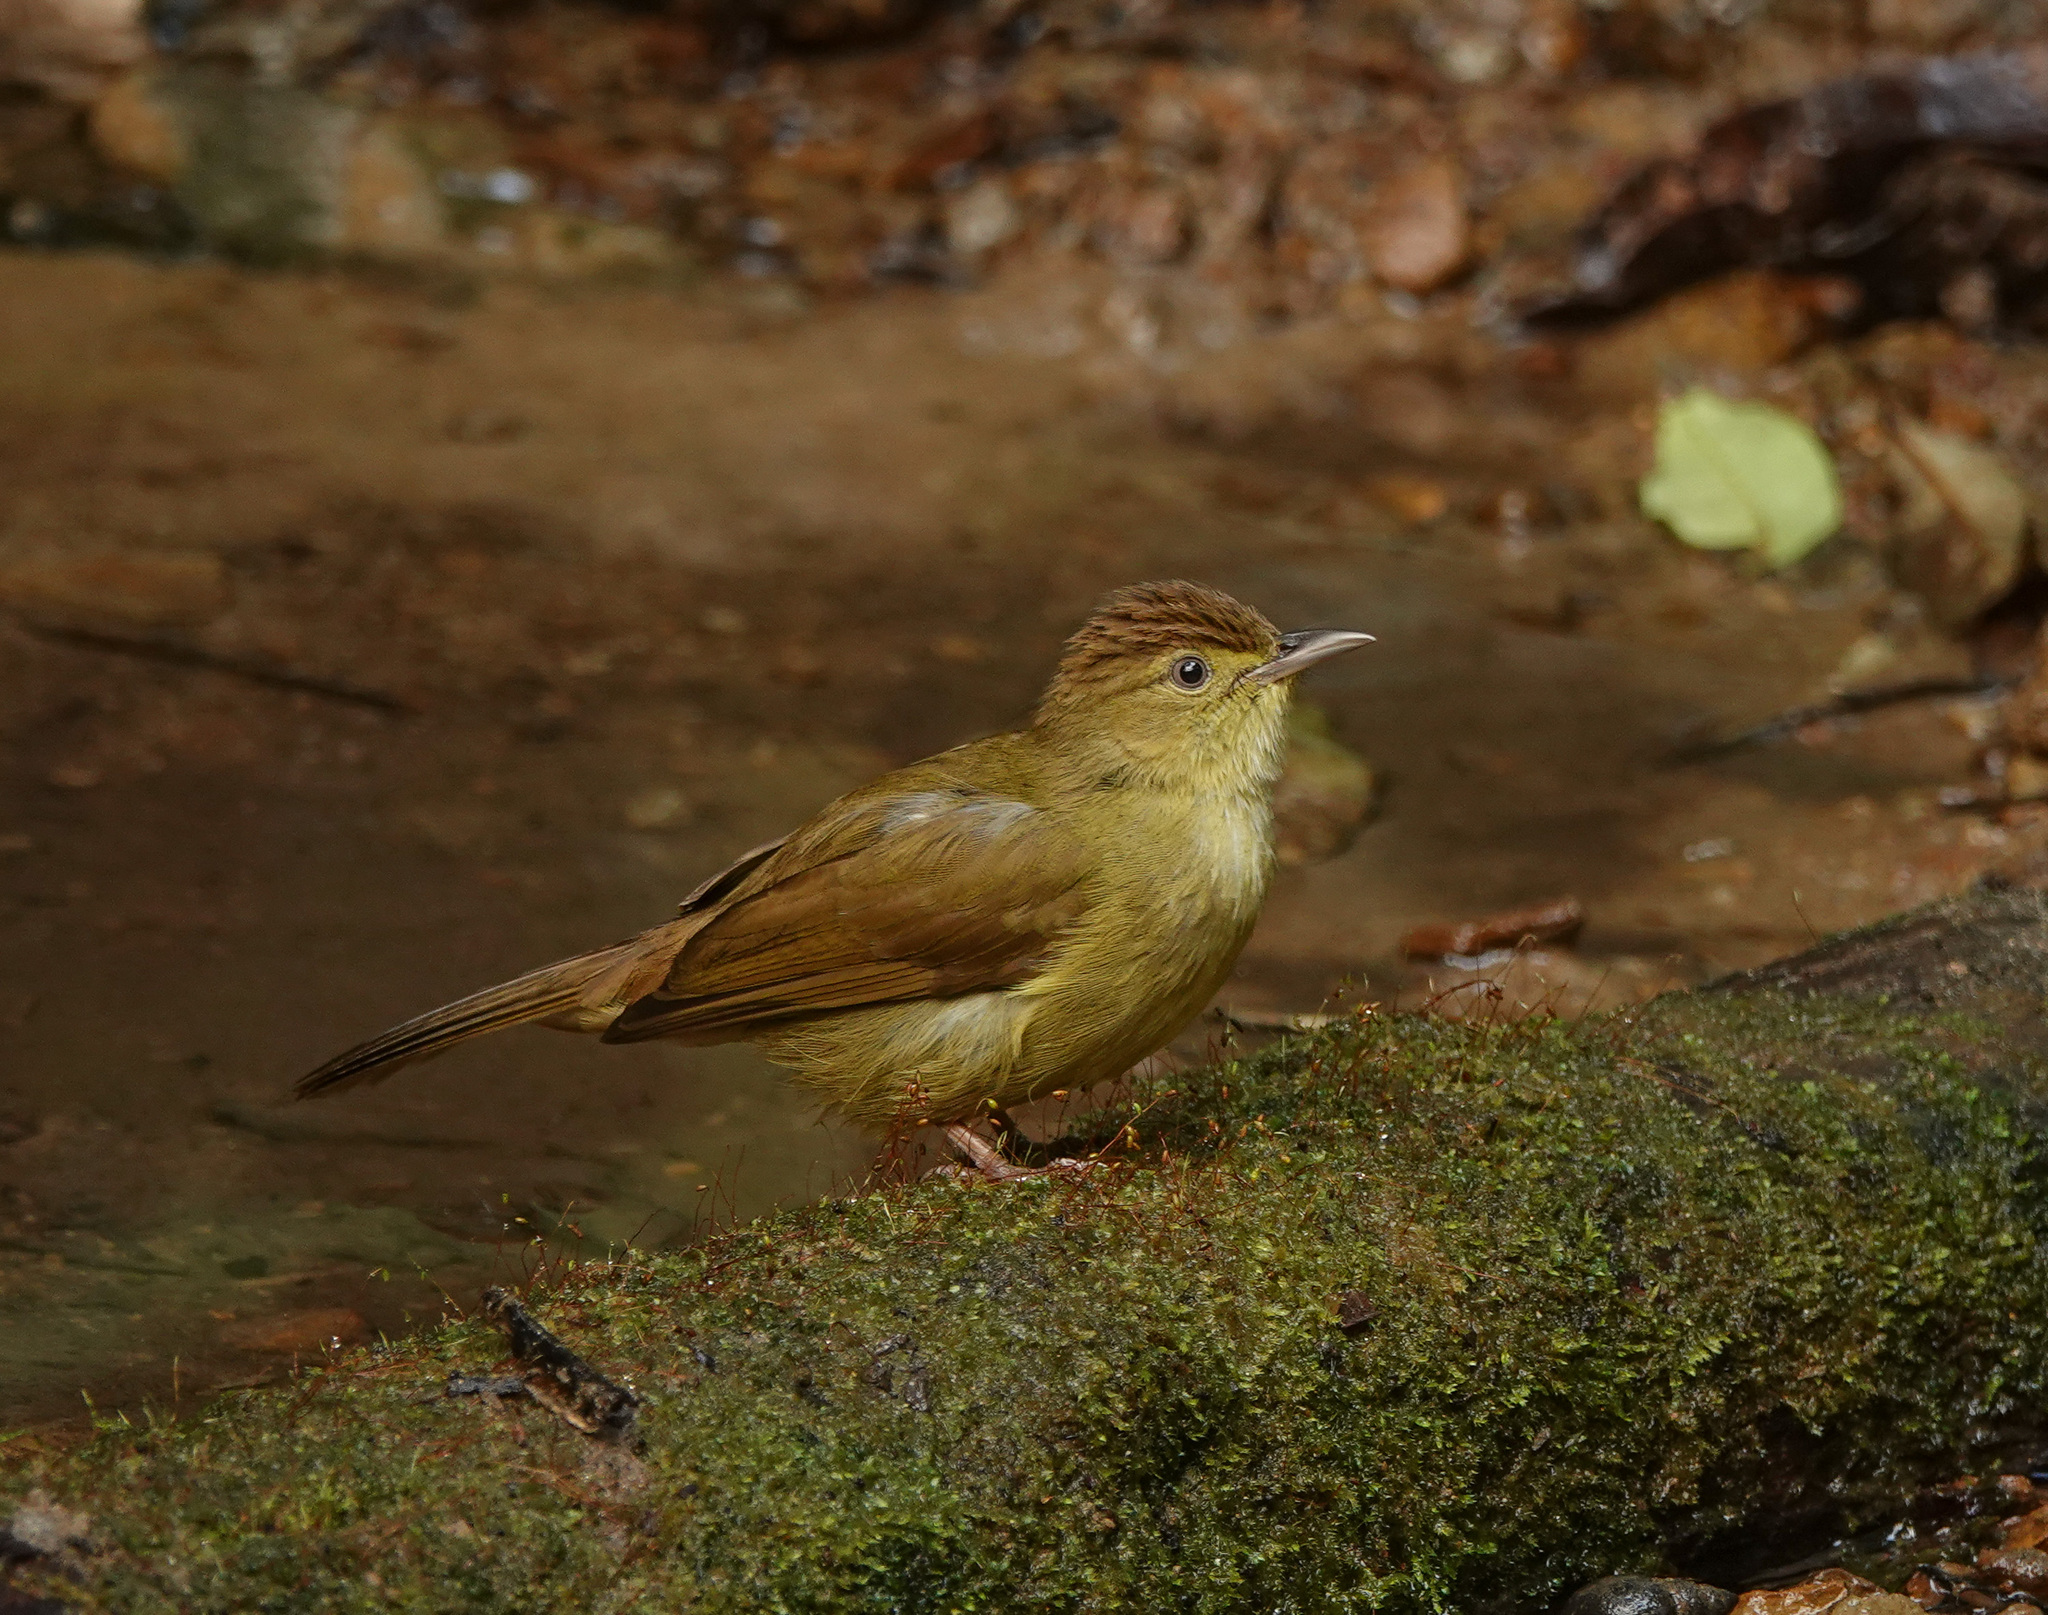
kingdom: Animalia
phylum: Chordata
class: Aves
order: Passeriformes
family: Pycnonotidae
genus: Iole
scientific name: Iole virescens
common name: Olive bulbul
